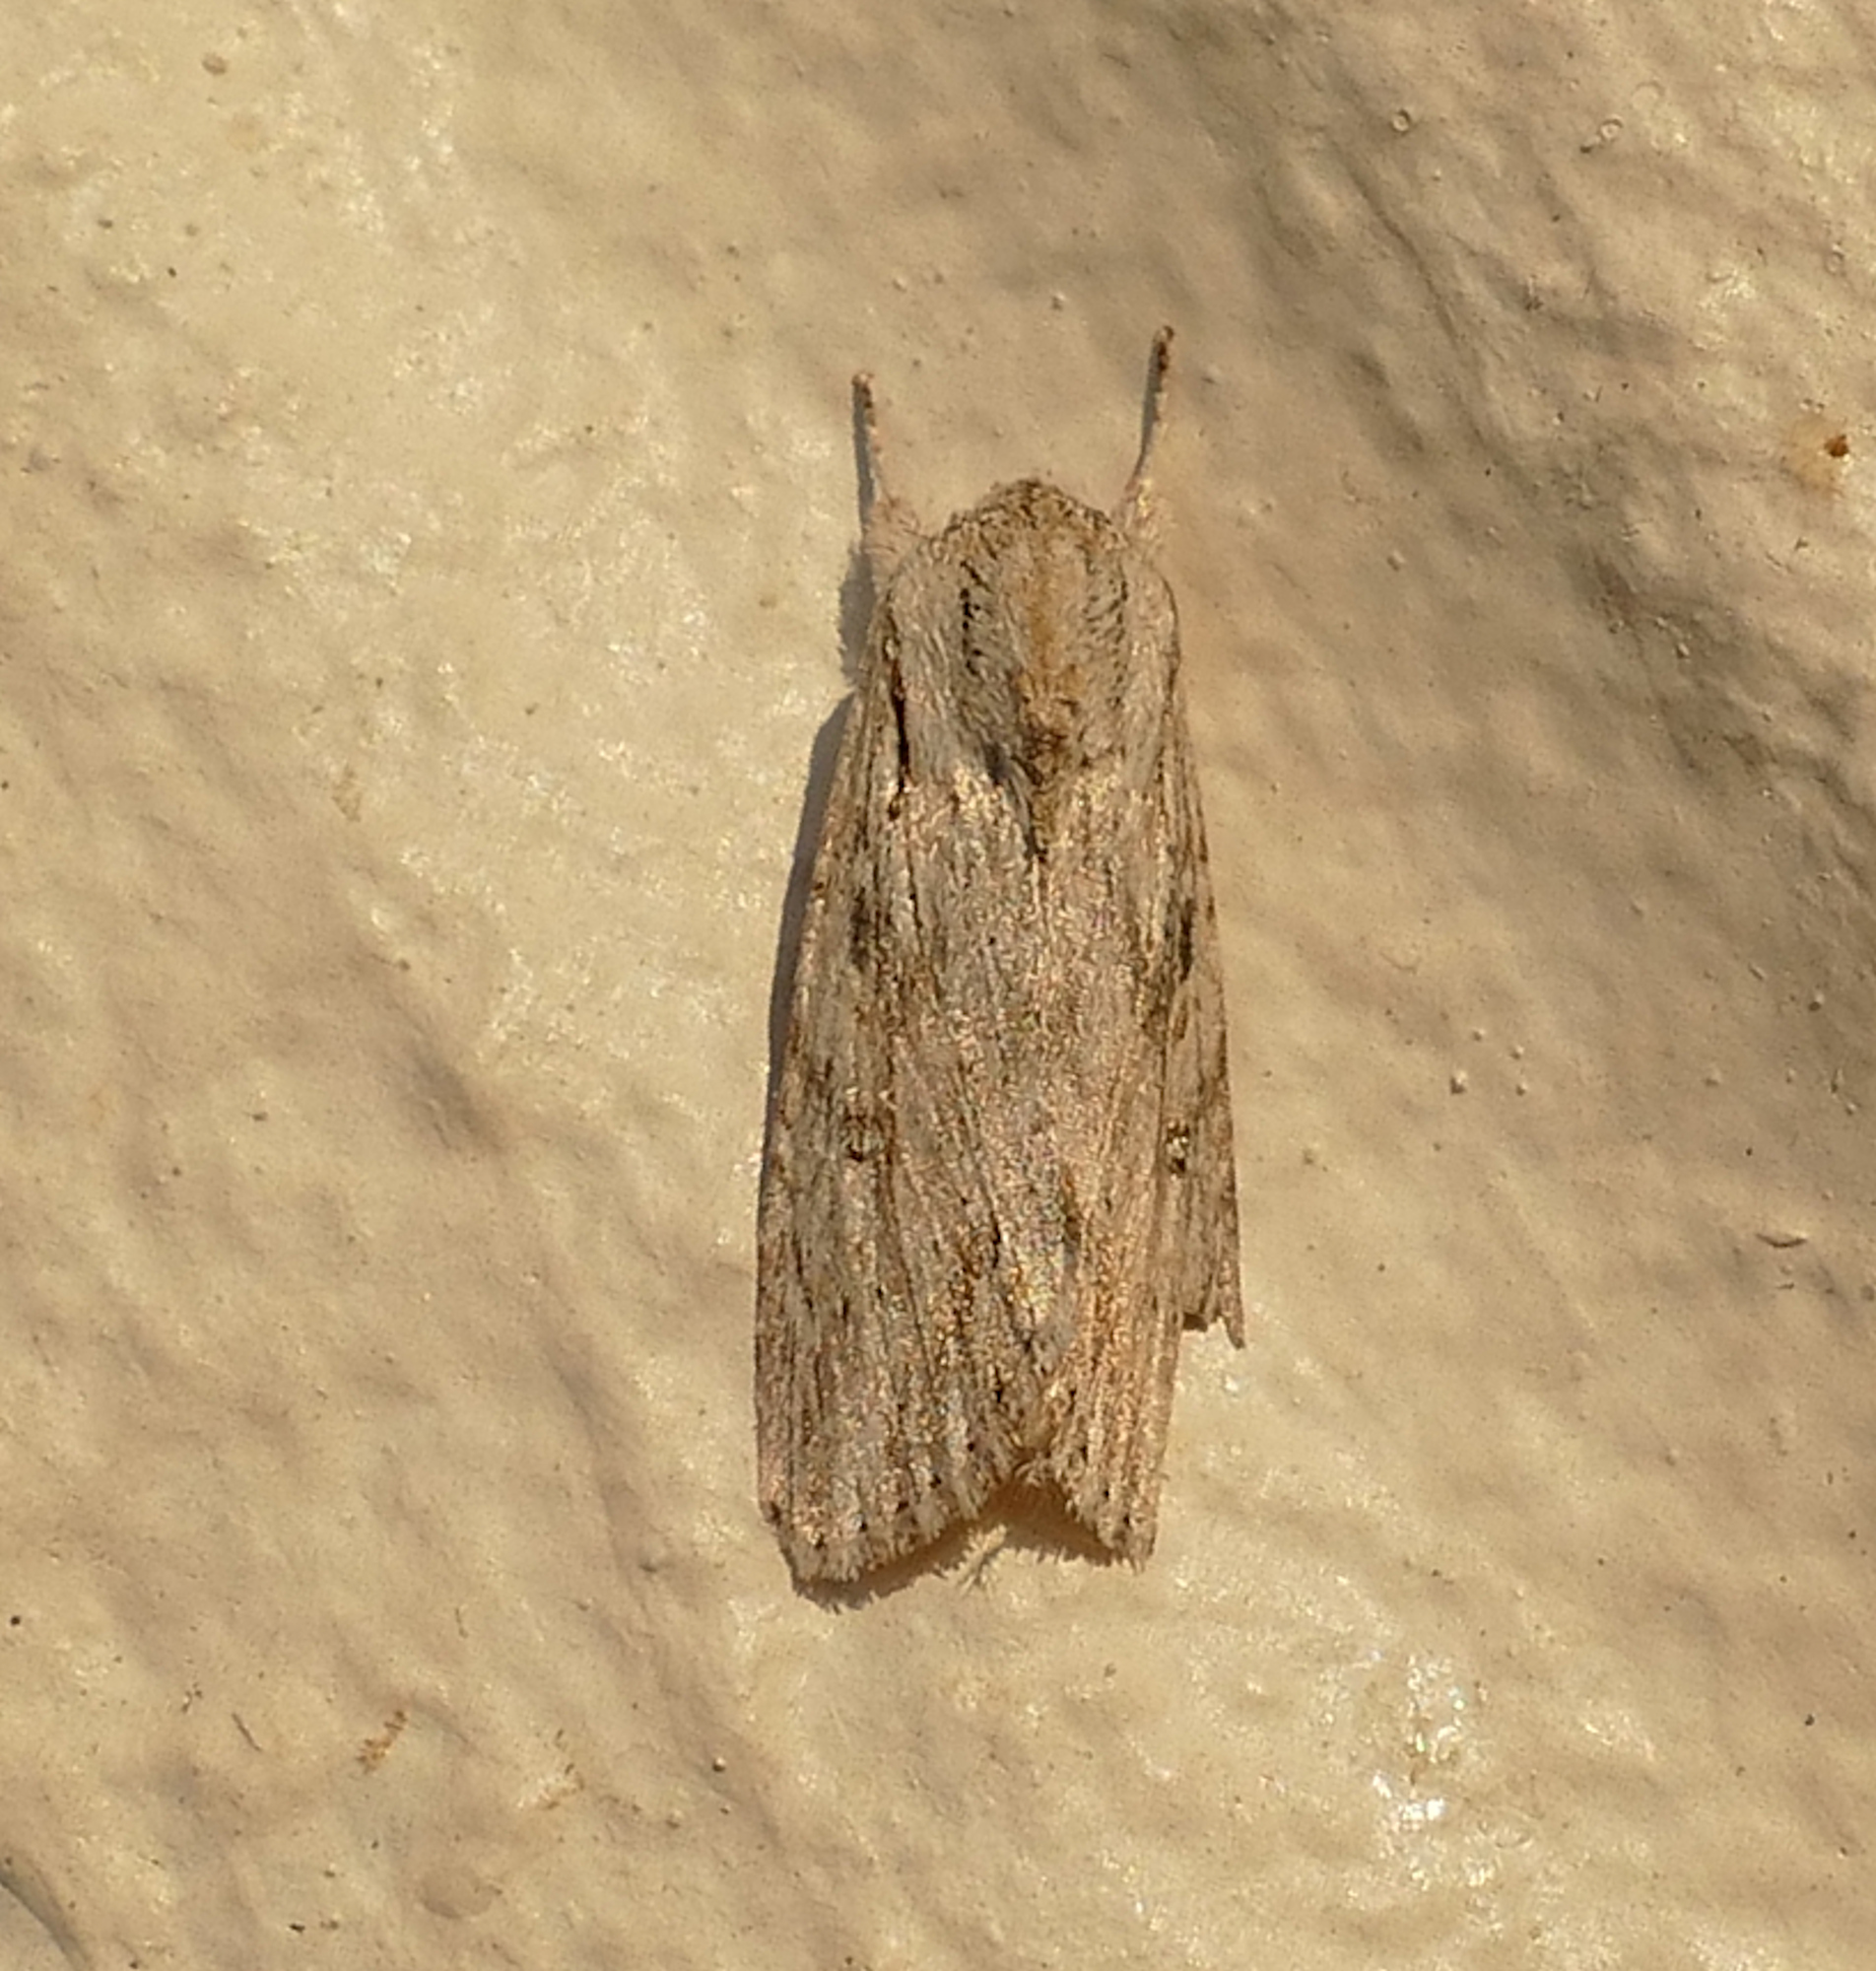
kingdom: Animalia
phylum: Arthropoda
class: Insecta
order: Lepidoptera
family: Noctuidae
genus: Spodoptera
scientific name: Spodoptera albula
